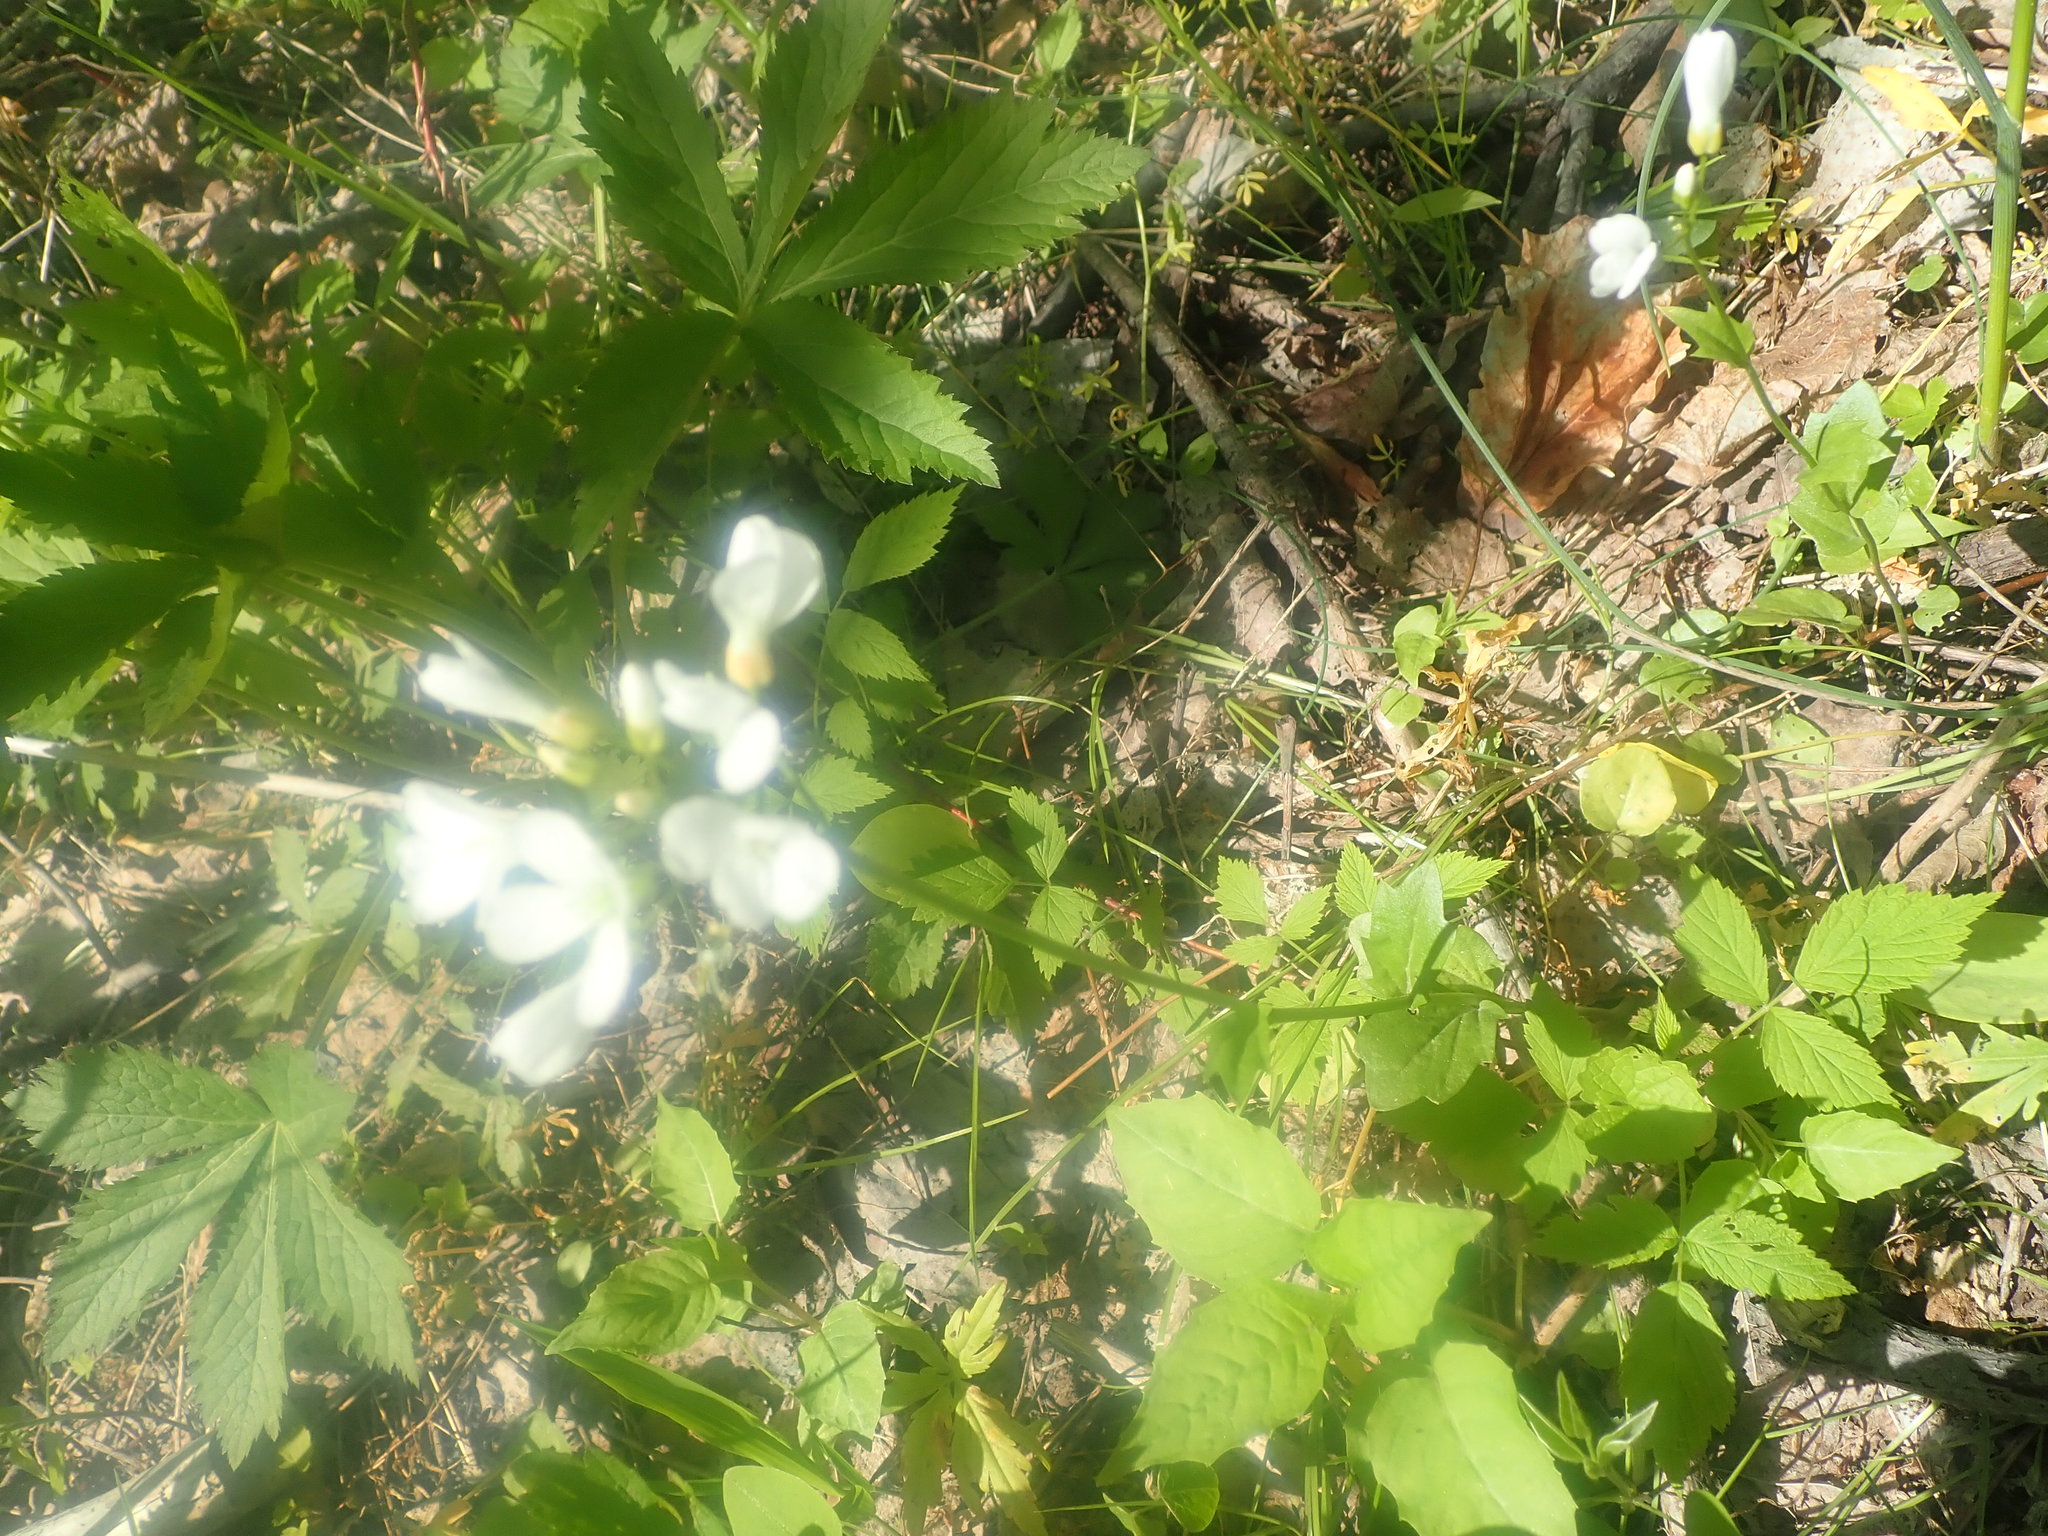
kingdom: Plantae
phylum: Tracheophyta
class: Magnoliopsida
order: Brassicales
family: Brassicaceae
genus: Cardamine
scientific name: Cardamine bulbosa
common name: Spring cress
